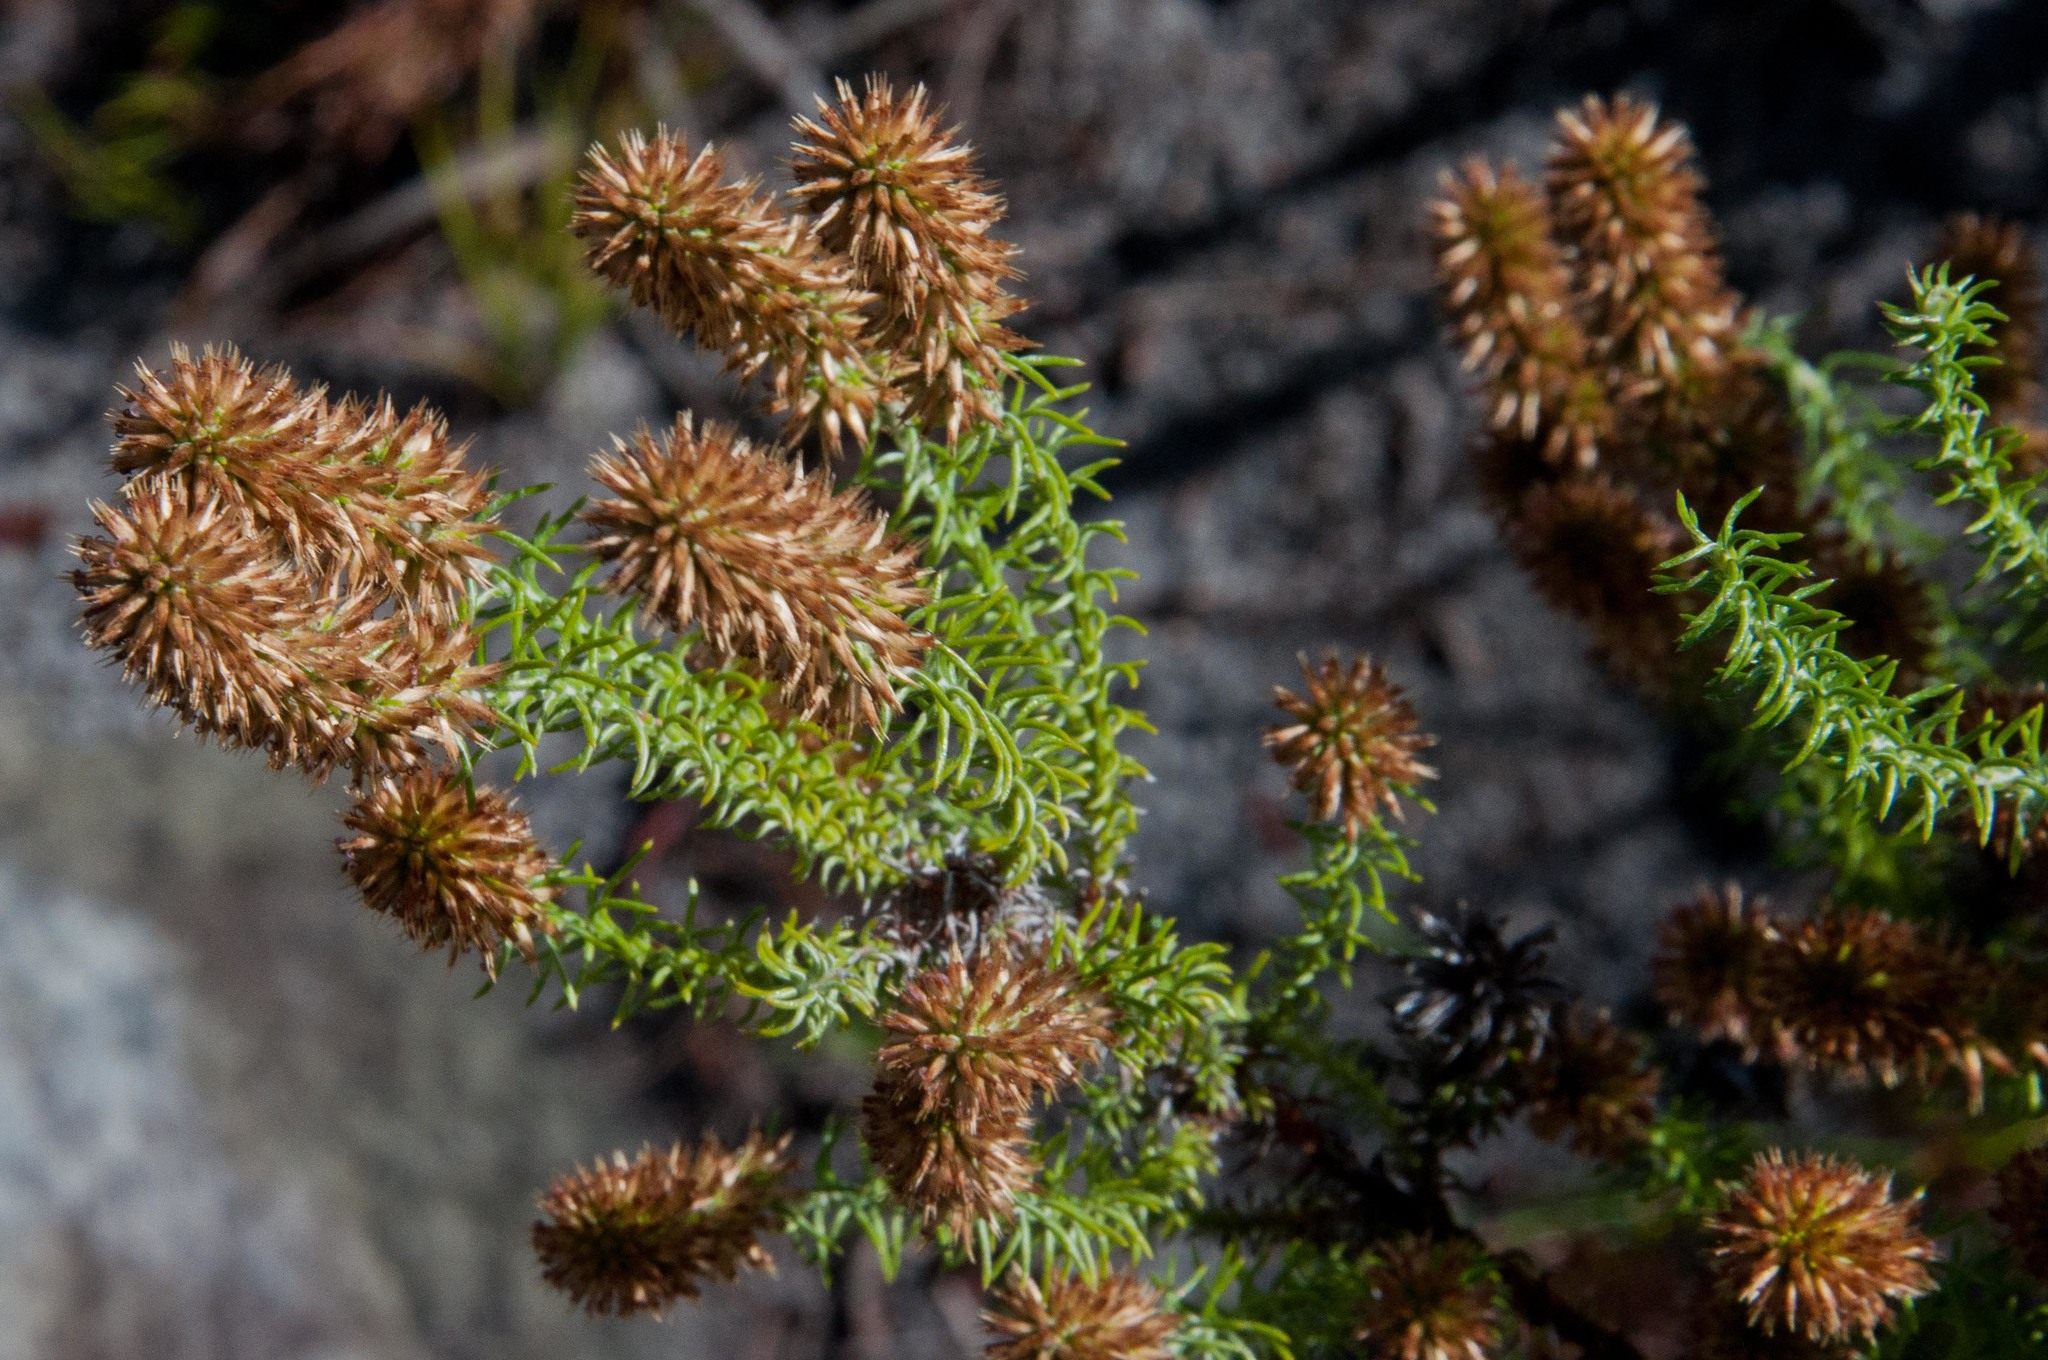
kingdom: Plantae
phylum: Tracheophyta
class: Magnoliopsida
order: Asterales
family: Asteraceae
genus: Seriphium
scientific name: Seriphium cinereum
